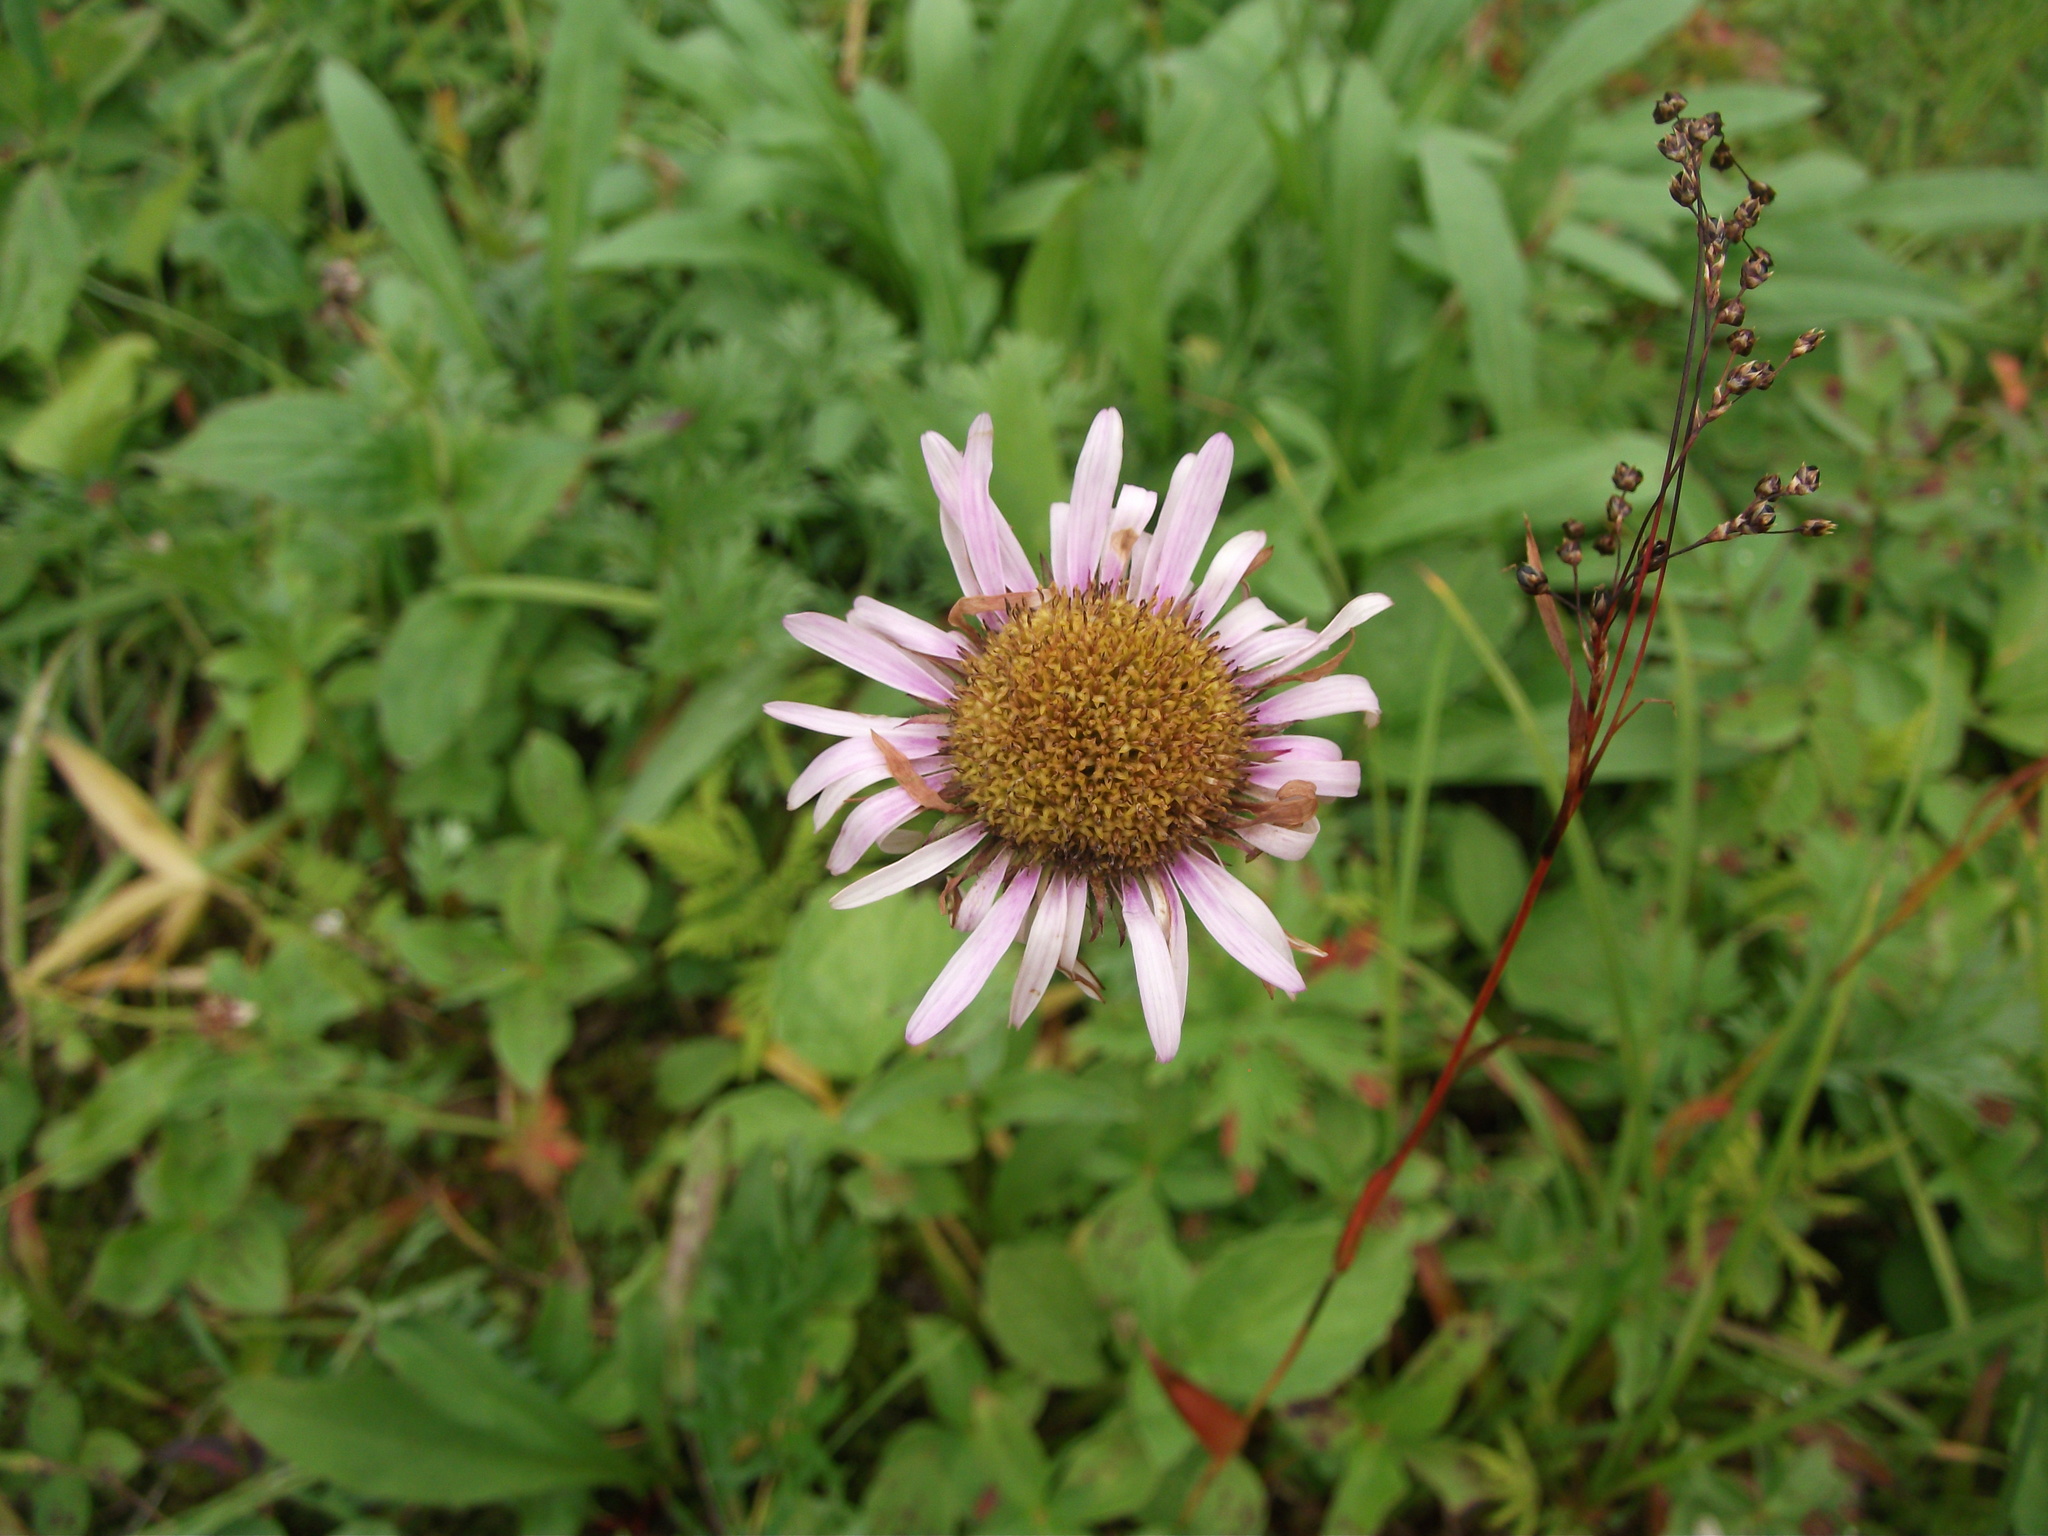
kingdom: Plantae
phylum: Tracheophyta
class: Magnoliopsida
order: Asterales
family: Asteraceae
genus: Eurybia
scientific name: Eurybia sibirica
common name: Arctic aster
